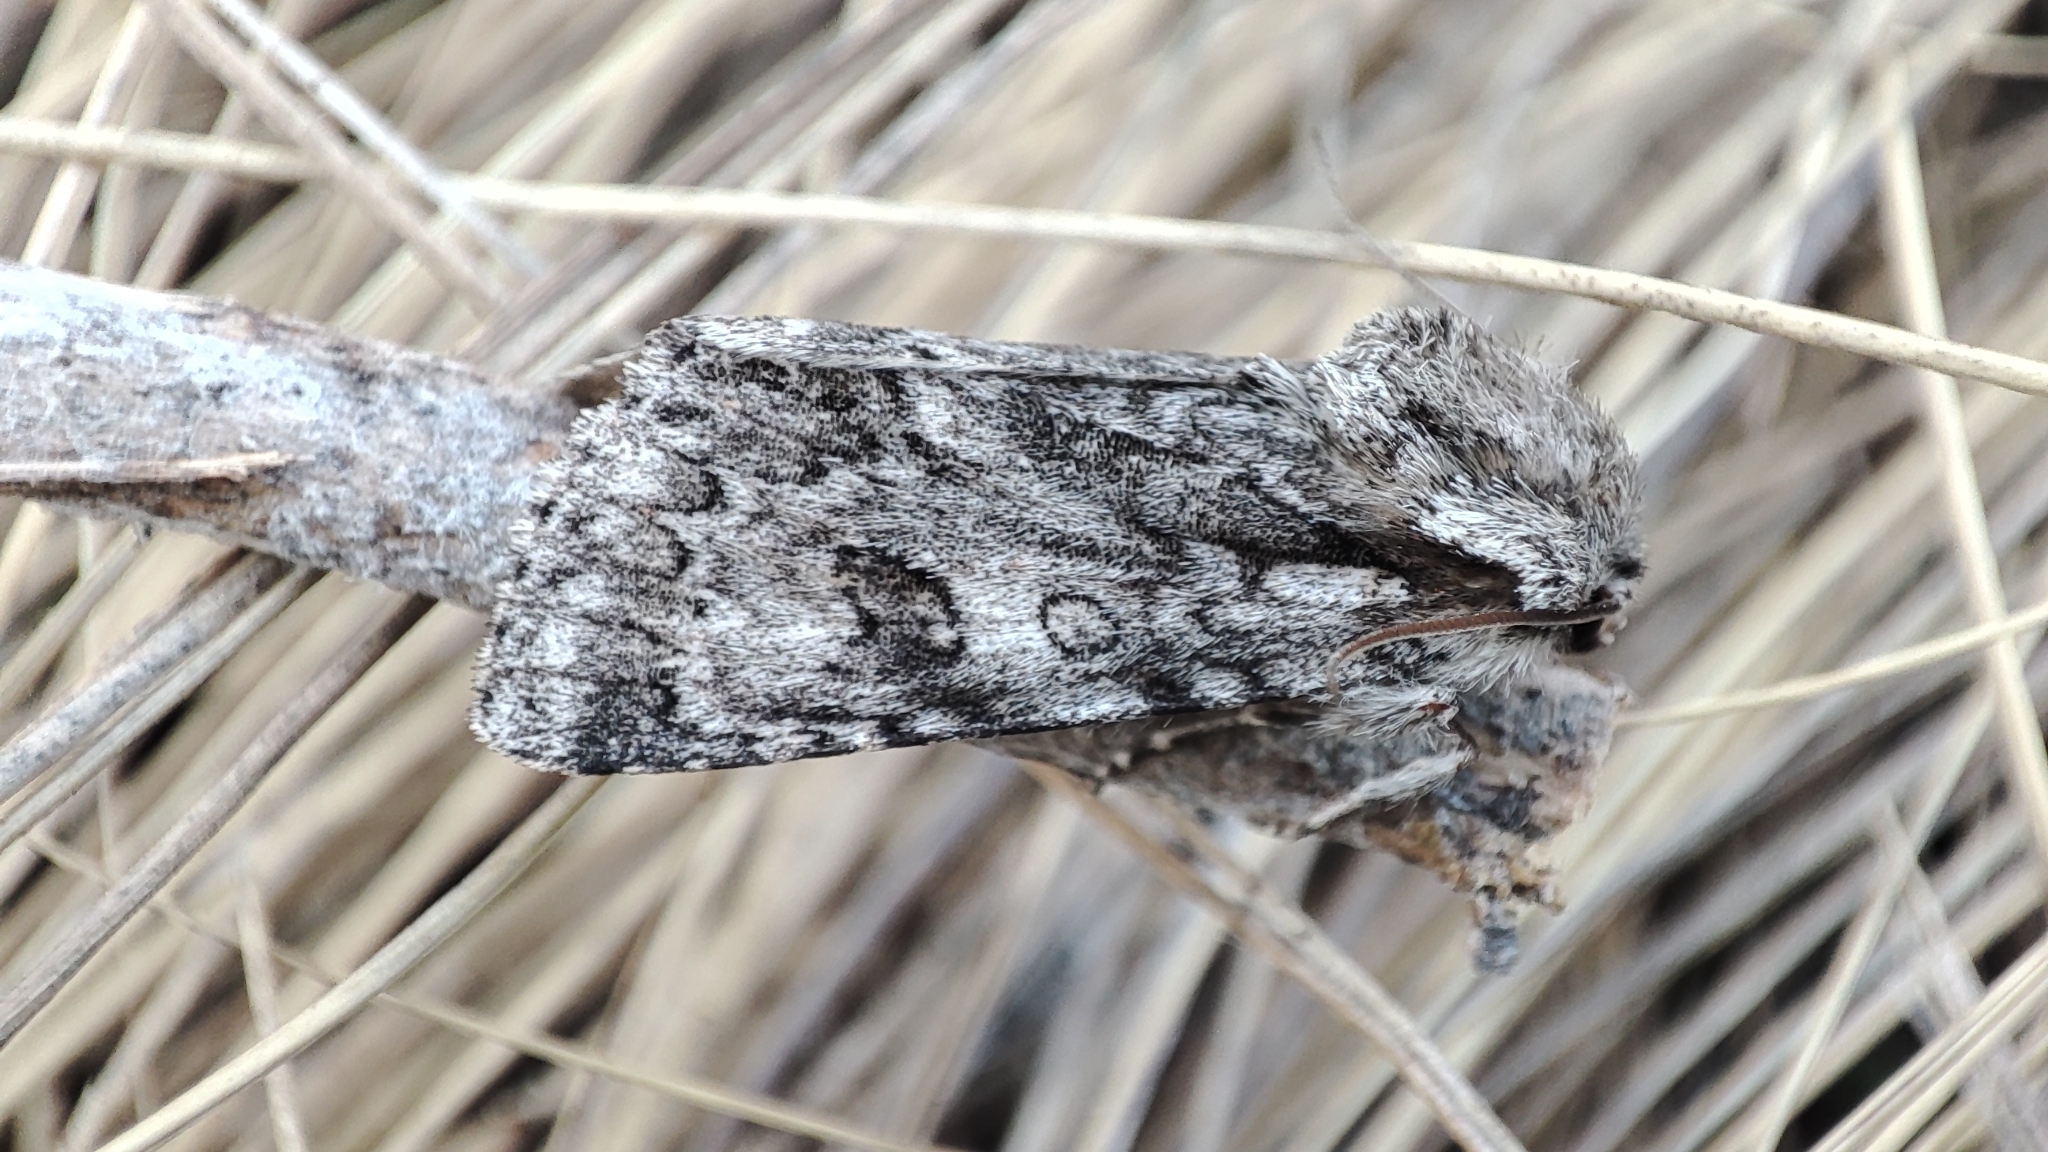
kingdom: Animalia
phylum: Arthropoda
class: Insecta
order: Lepidoptera
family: Noctuidae
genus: Acronicta
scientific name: Acronicta auricoma
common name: Scarce dagger
